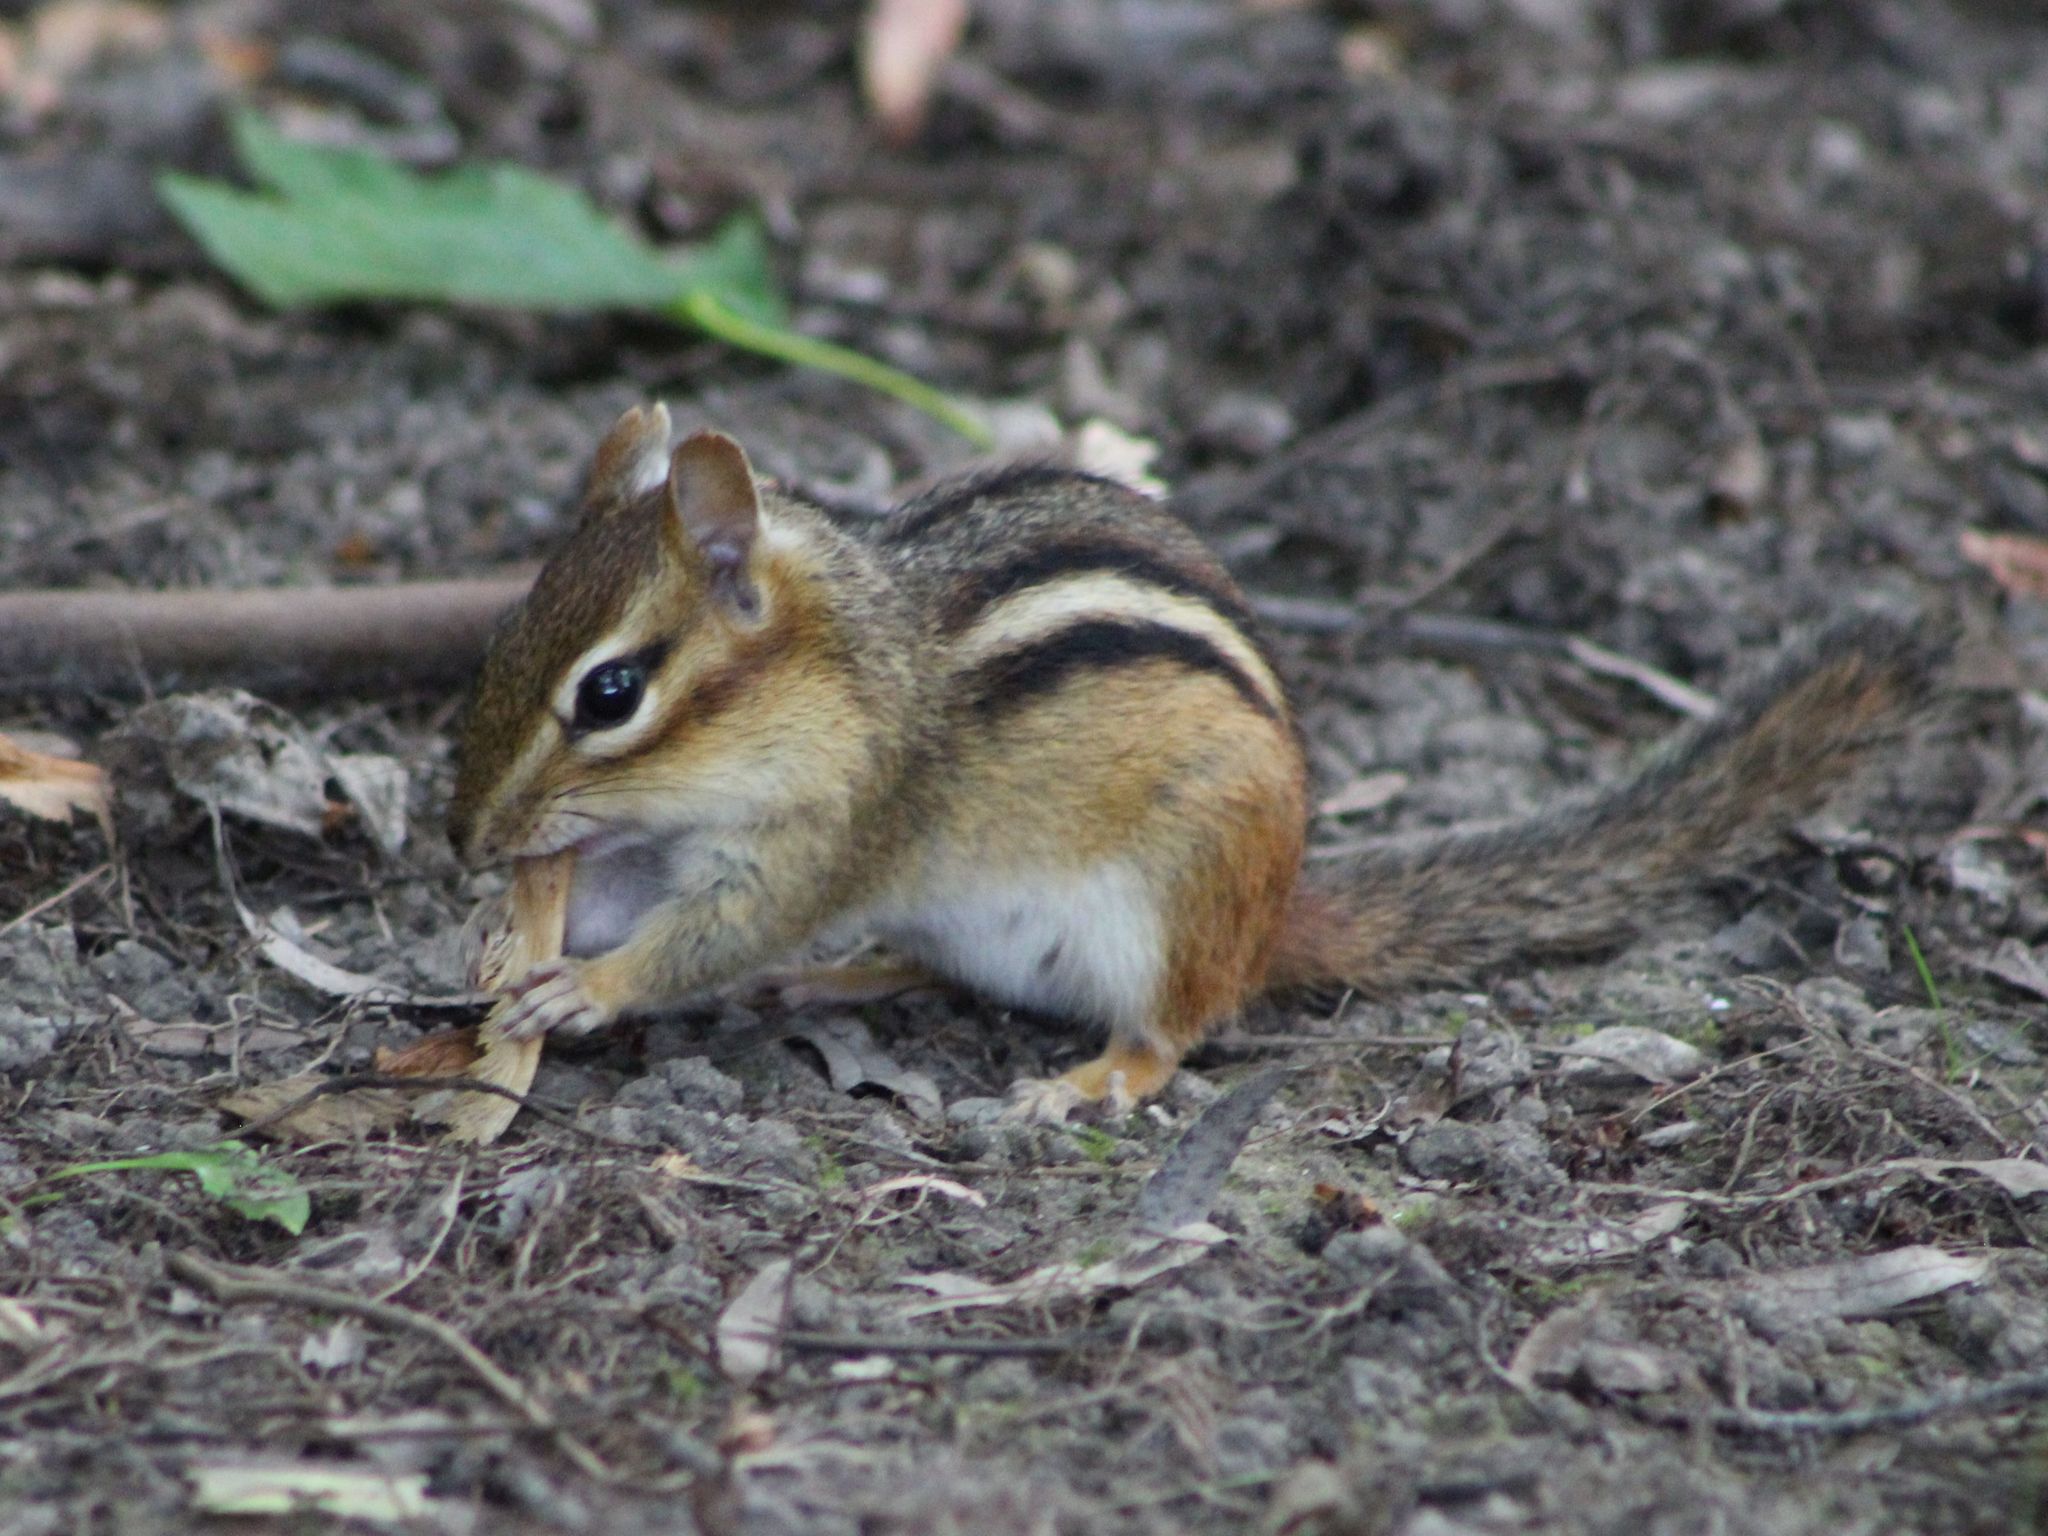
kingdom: Animalia
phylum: Chordata
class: Mammalia
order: Rodentia
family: Sciuridae
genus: Tamias
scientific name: Tamias striatus
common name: Eastern chipmunk
